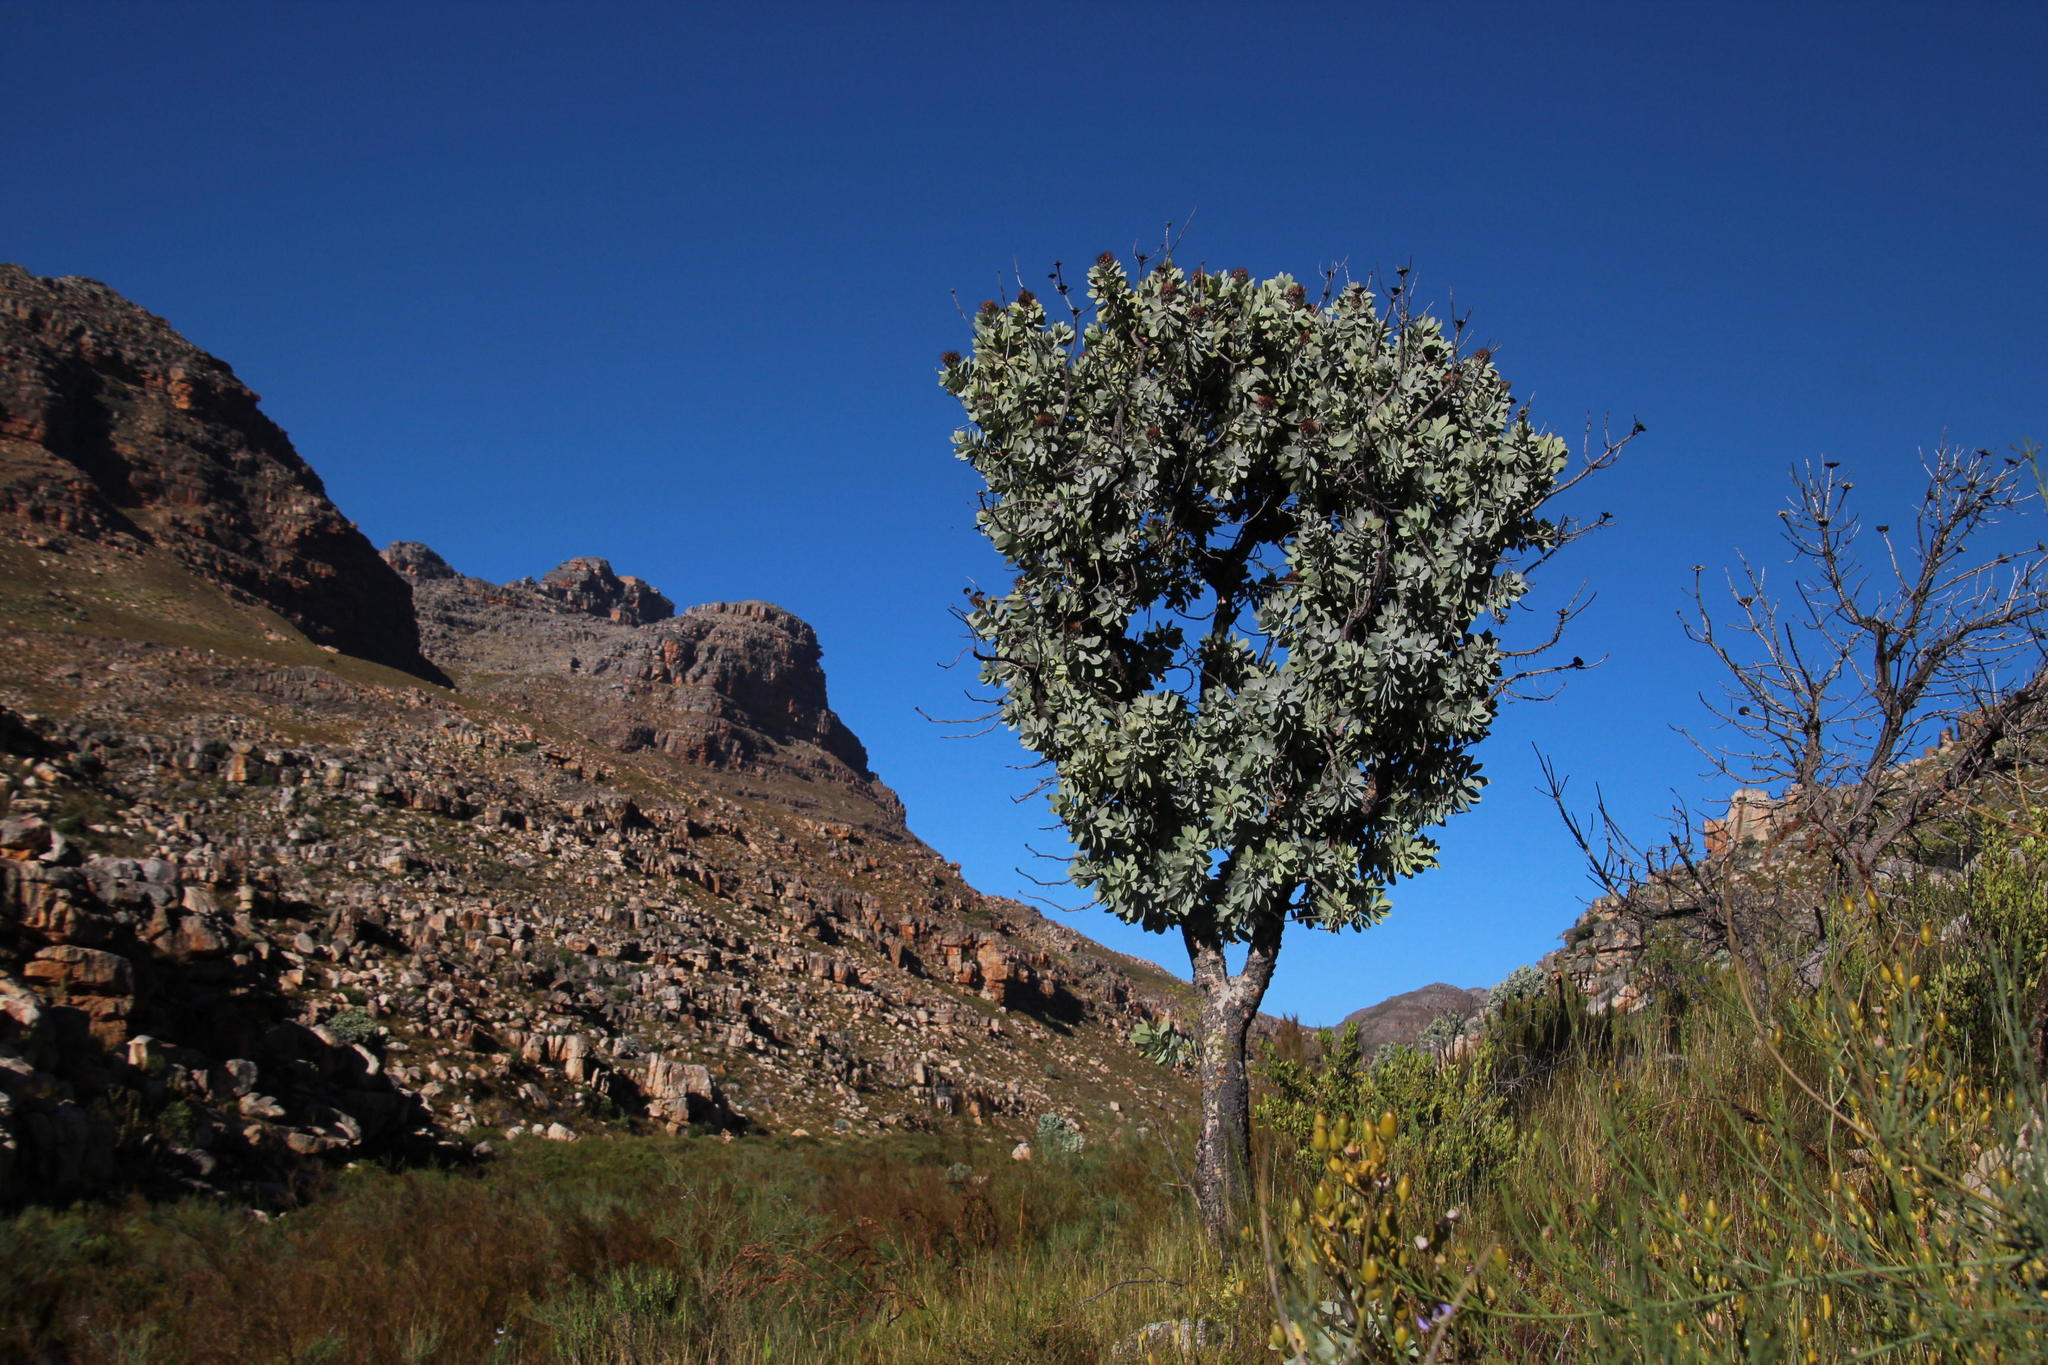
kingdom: Plantae
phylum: Tracheophyta
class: Magnoliopsida
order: Proteales
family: Proteaceae
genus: Protea
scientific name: Protea nitida
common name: Tree protea
